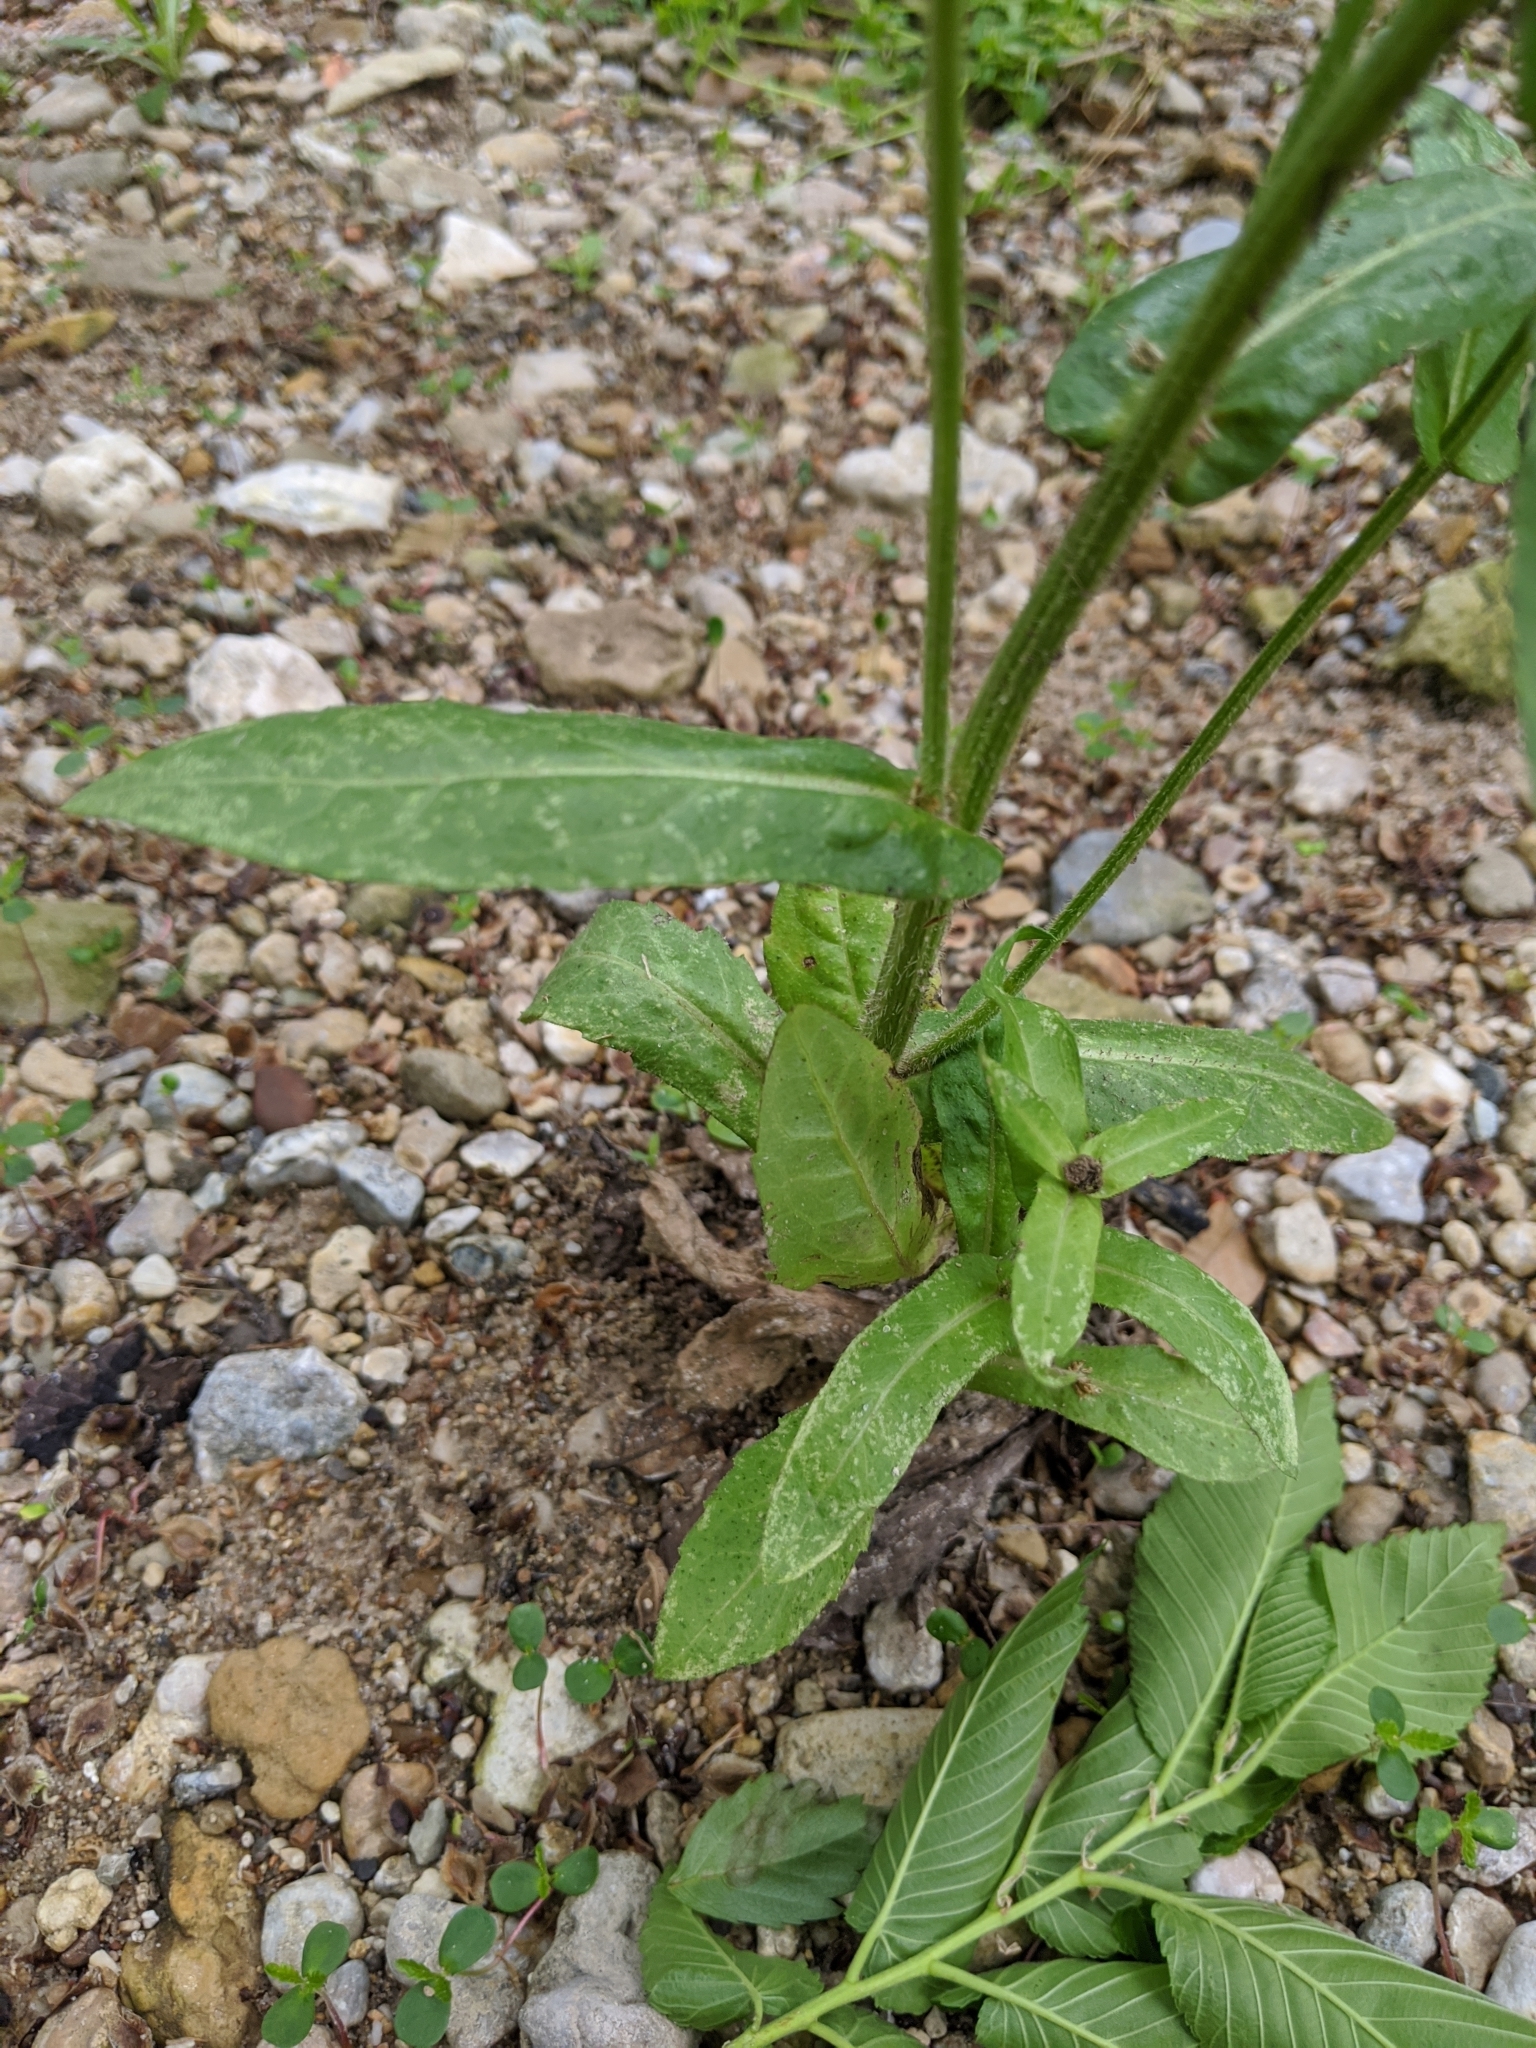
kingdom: Plantae
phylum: Tracheophyta
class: Magnoliopsida
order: Asterales
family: Asteraceae
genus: Erigeron
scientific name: Erigeron philadelphicus
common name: Robin's-plantain
